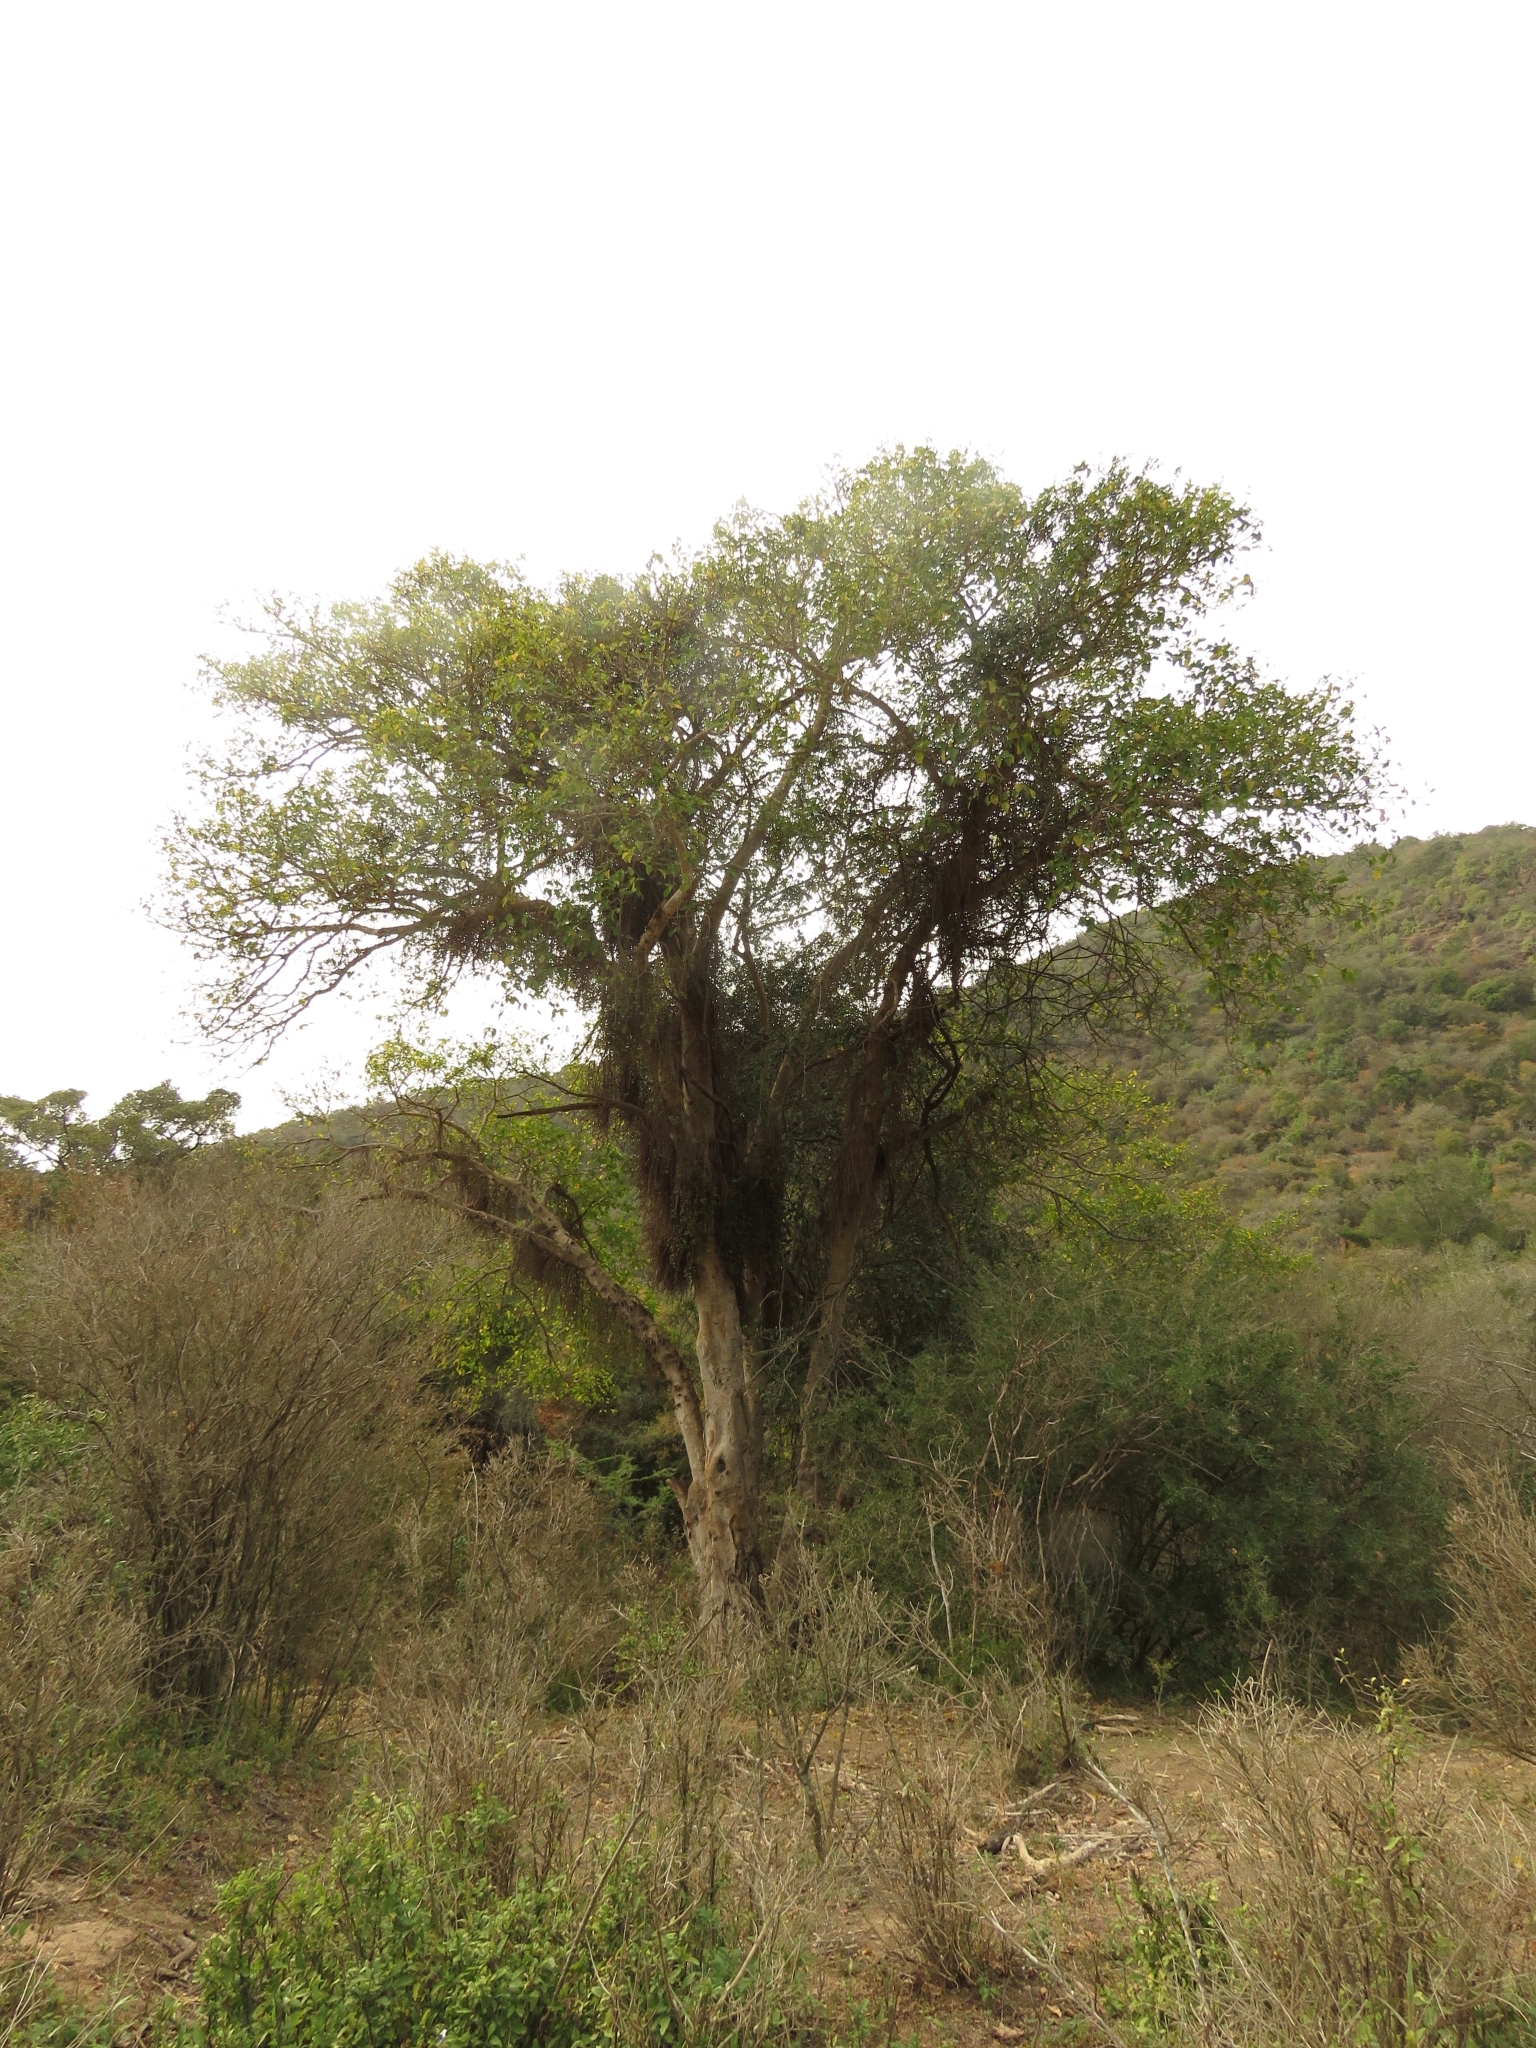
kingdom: Plantae
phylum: Tracheophyta
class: Magnoliopsida
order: Rosales
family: Moraceae
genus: Ficus
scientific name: Ficus sur
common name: Cape fig
